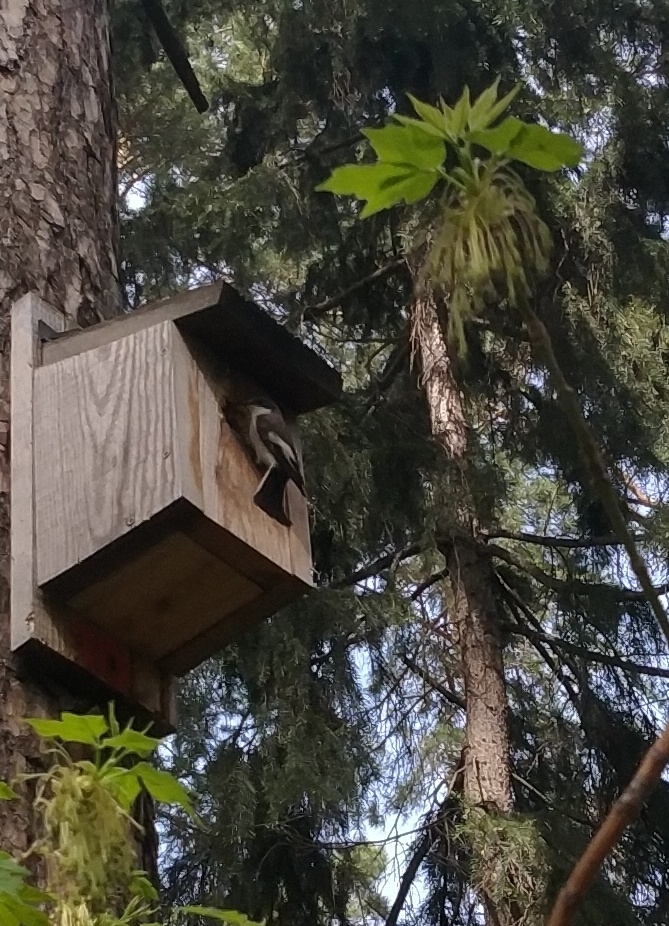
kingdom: Animalia
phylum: Chordata
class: Aves
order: Passeriformes
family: Muscicapidae
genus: Ficedula
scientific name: Ficedula hypoleuca
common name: European pied flycatcher
